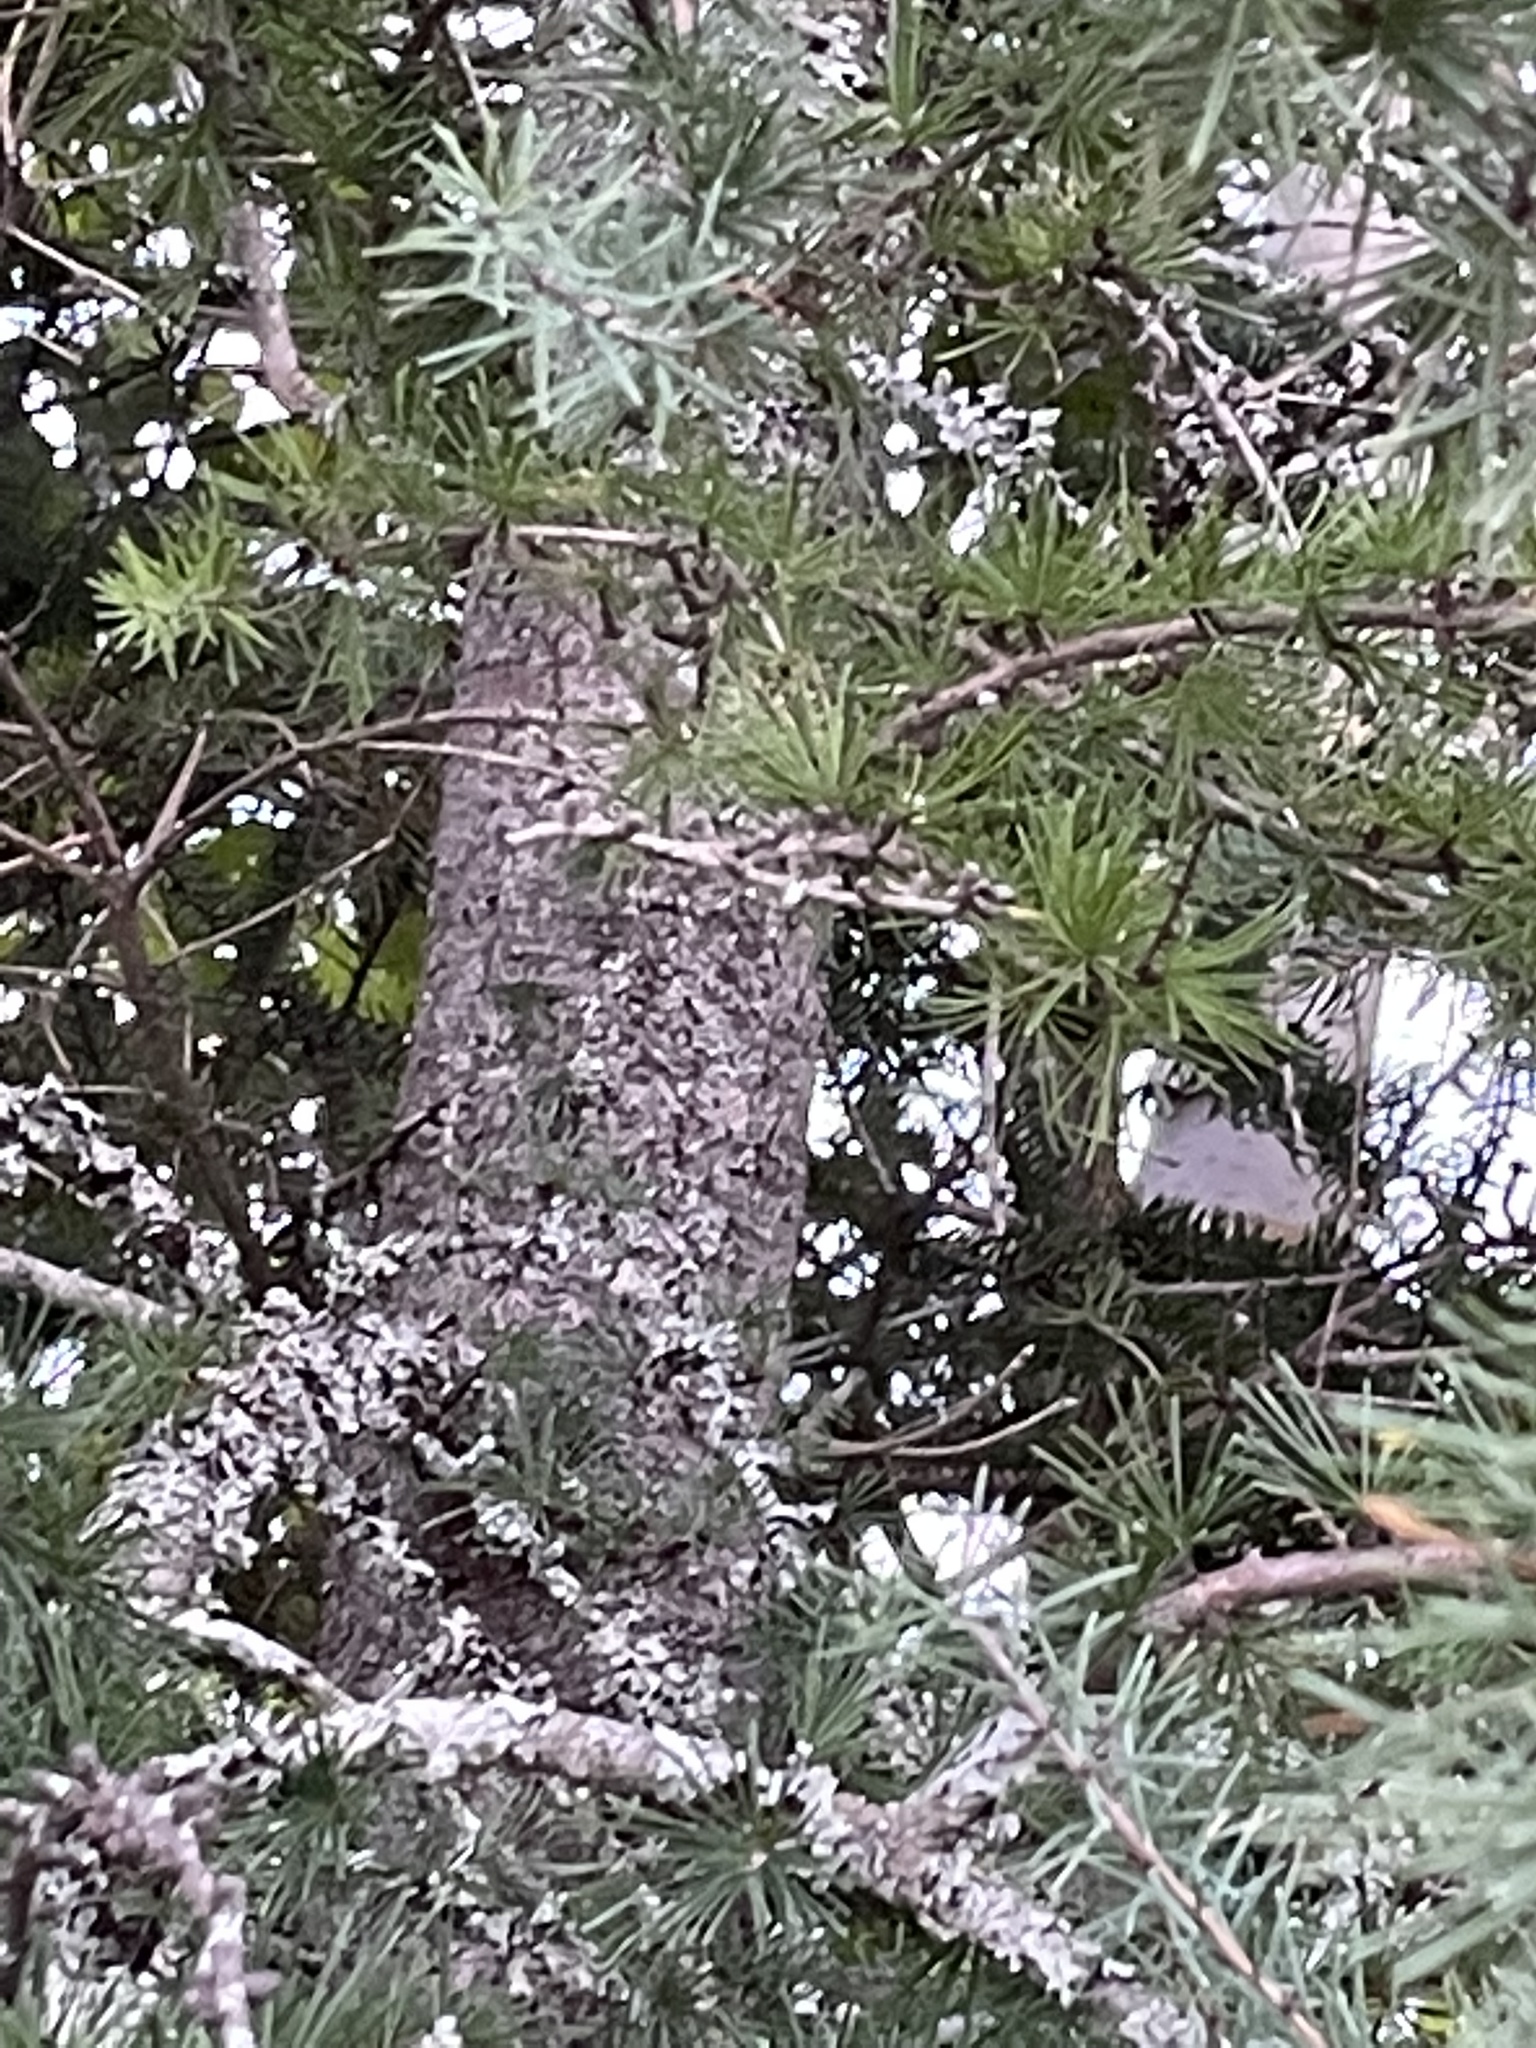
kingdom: Plantae
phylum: Tracheophyta
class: Pinopsida
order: Pinales
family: Pinaceae
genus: Larix
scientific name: Larix laricina
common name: American larch
